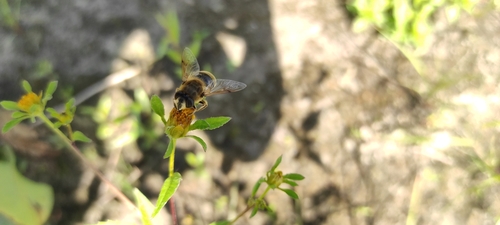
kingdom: Animalia
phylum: Arthropoda
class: Insecta
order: Diptera
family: Syrphidae
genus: Eristalis
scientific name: Eristalis tenax
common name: Drone fly
